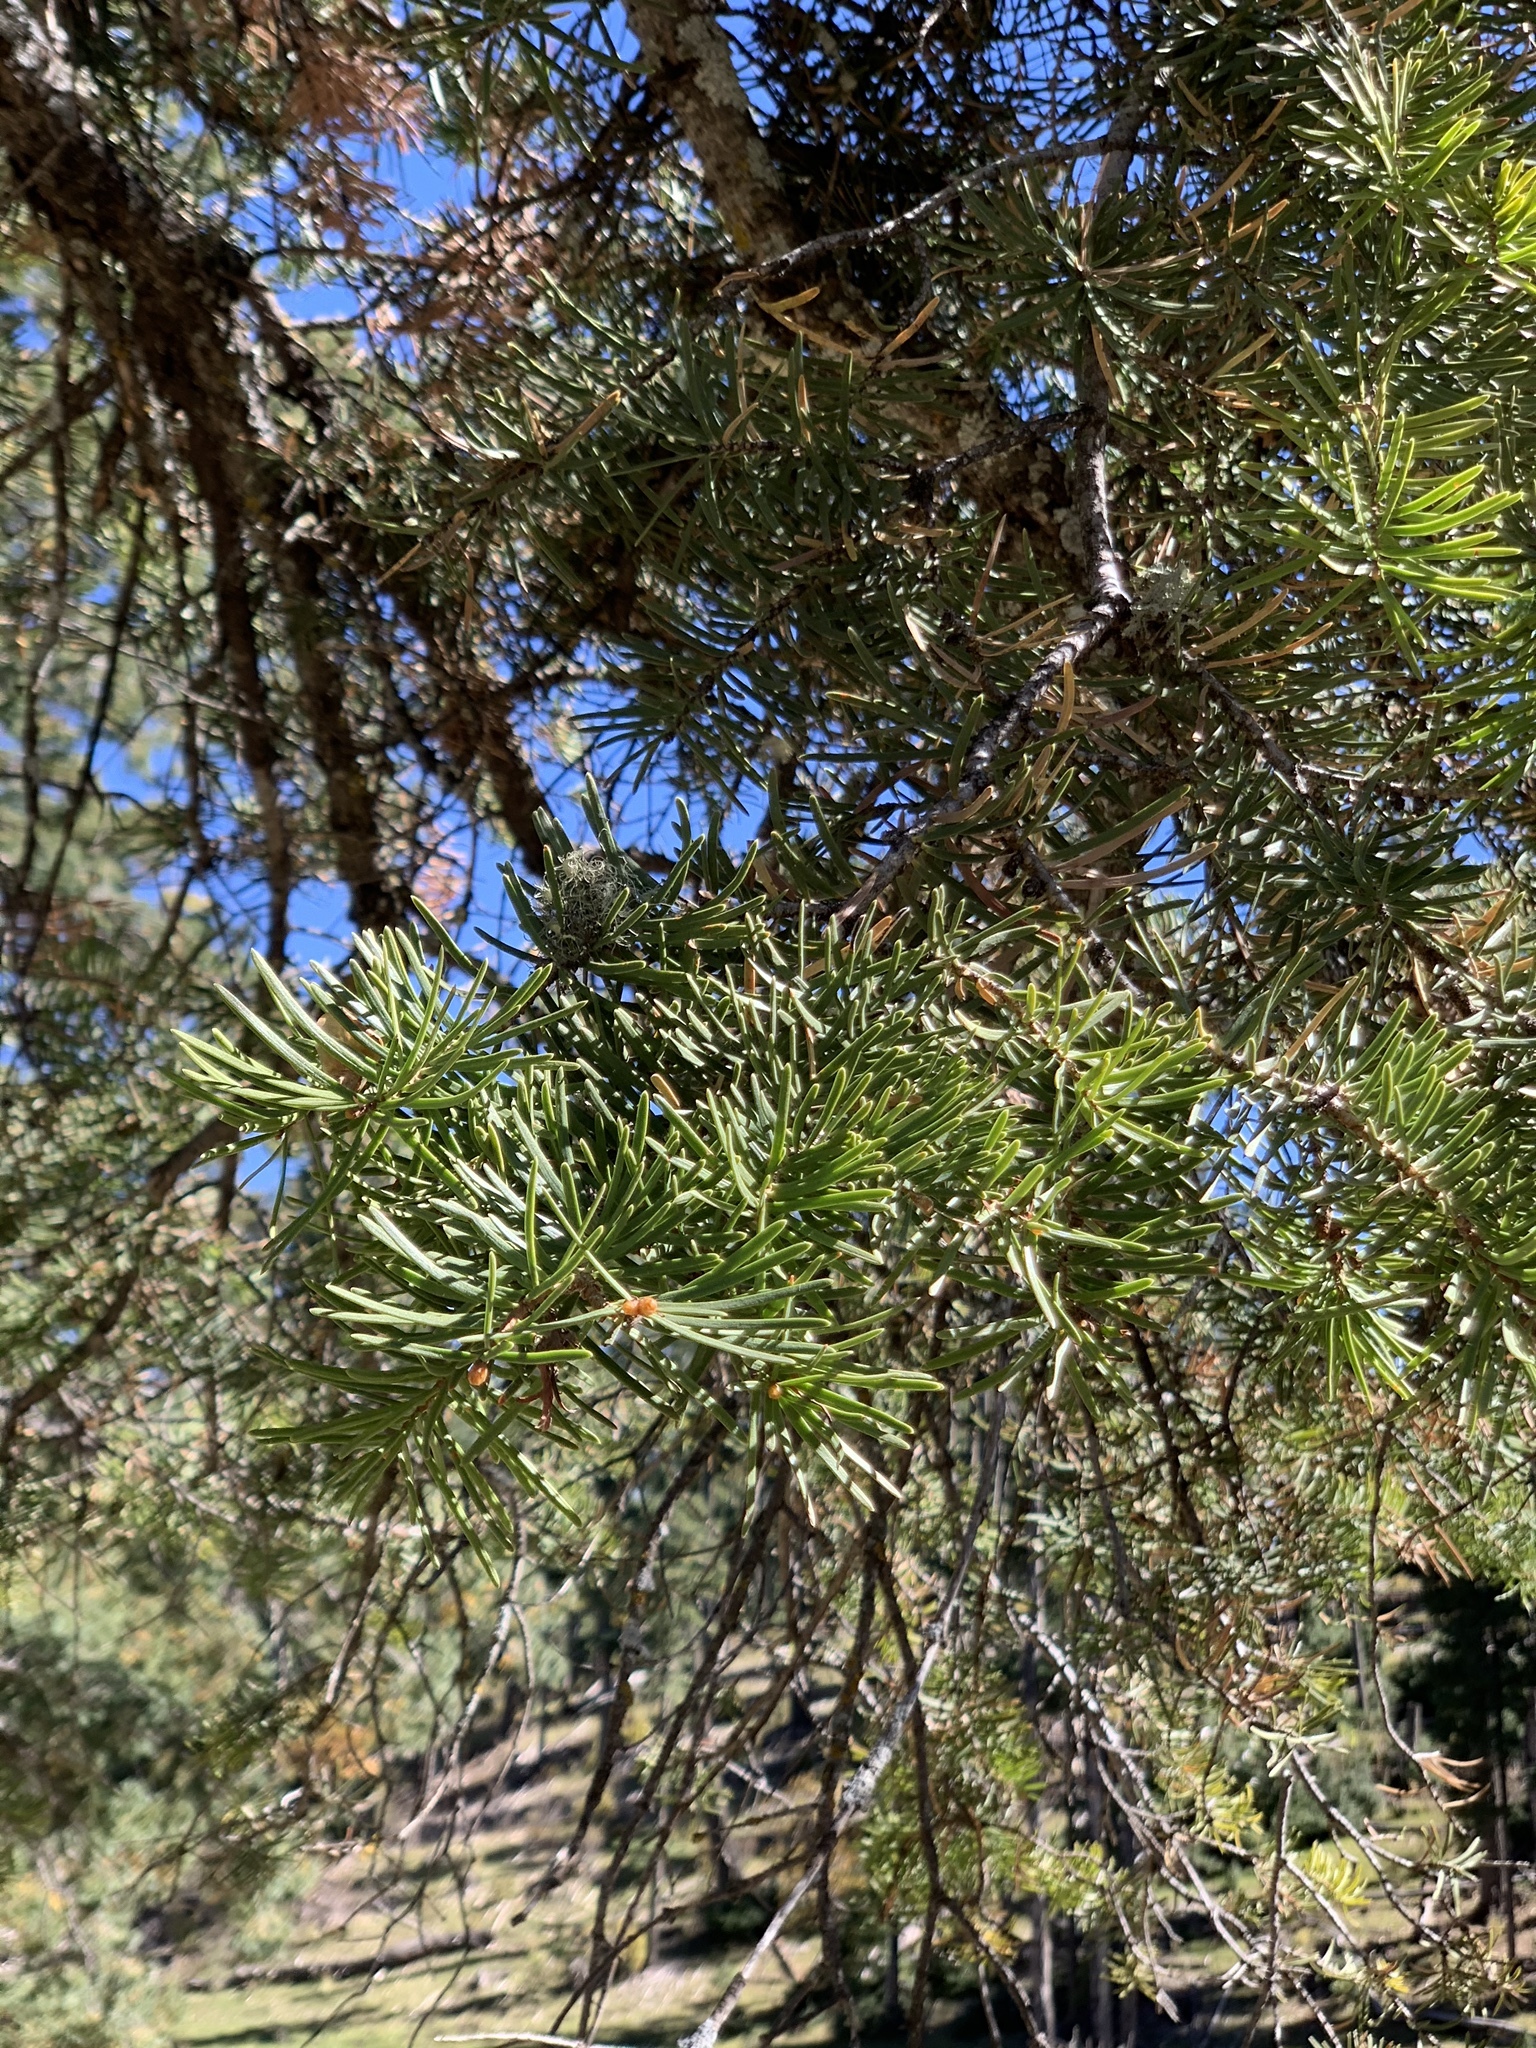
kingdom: Plantae
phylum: Tracheophyta
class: Pinopsida
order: Pinales
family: Pinaceae
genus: Abies
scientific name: Abies concolor
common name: Colorado fir
